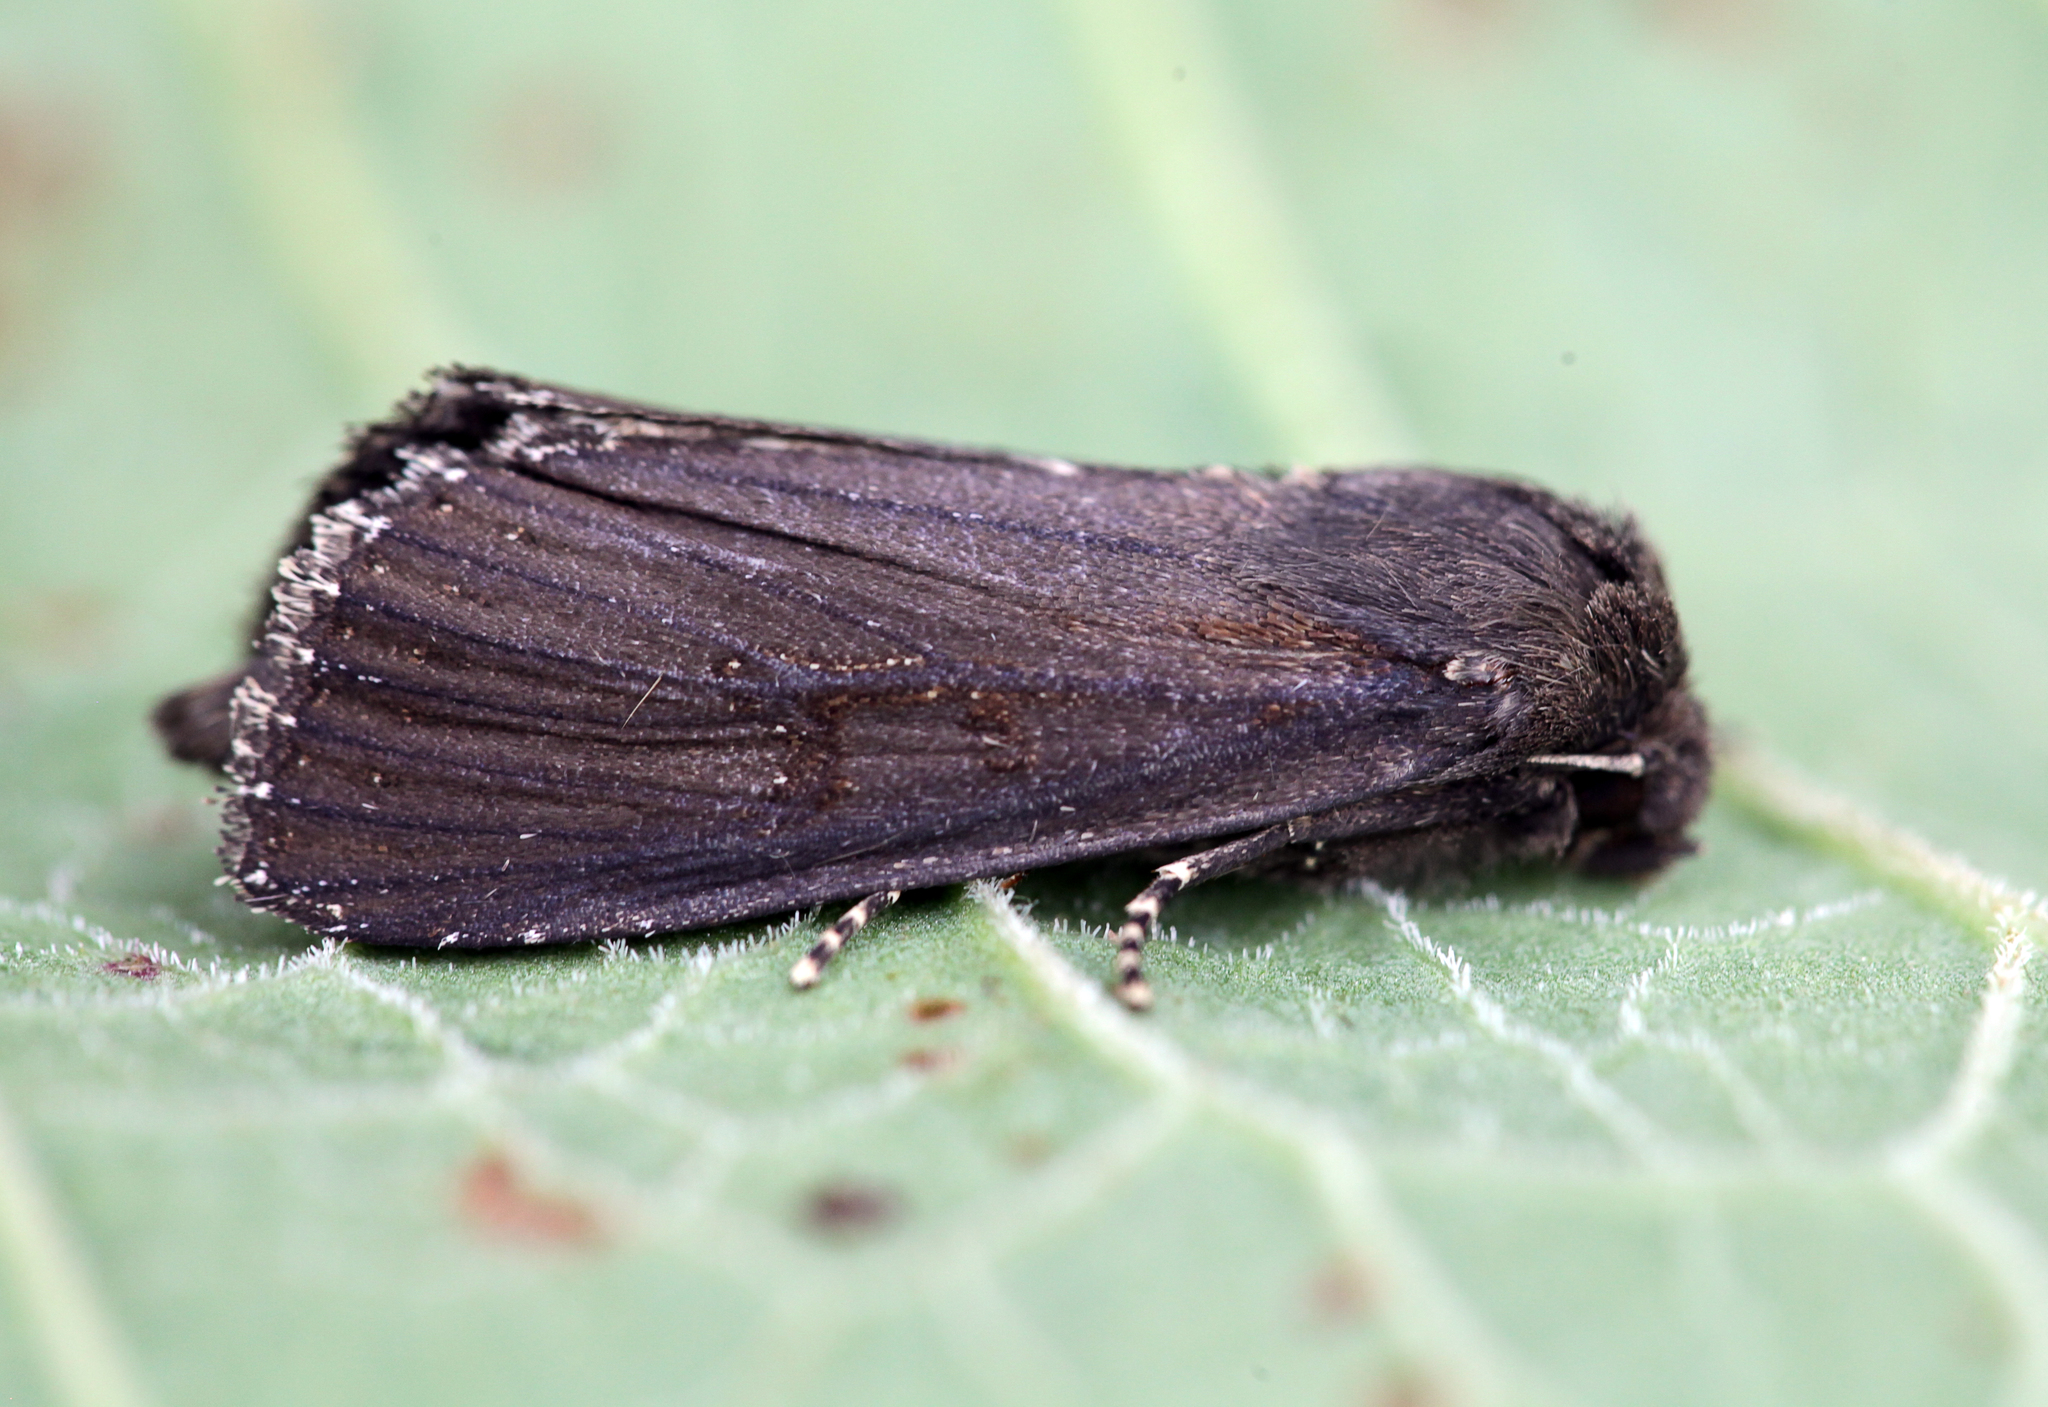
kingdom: Animalia
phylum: Arthropoda
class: Insecta
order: Lepidoptera
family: Noctuidae
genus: Nonagria
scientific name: Nonagria typhae
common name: Bulrush wainscot
